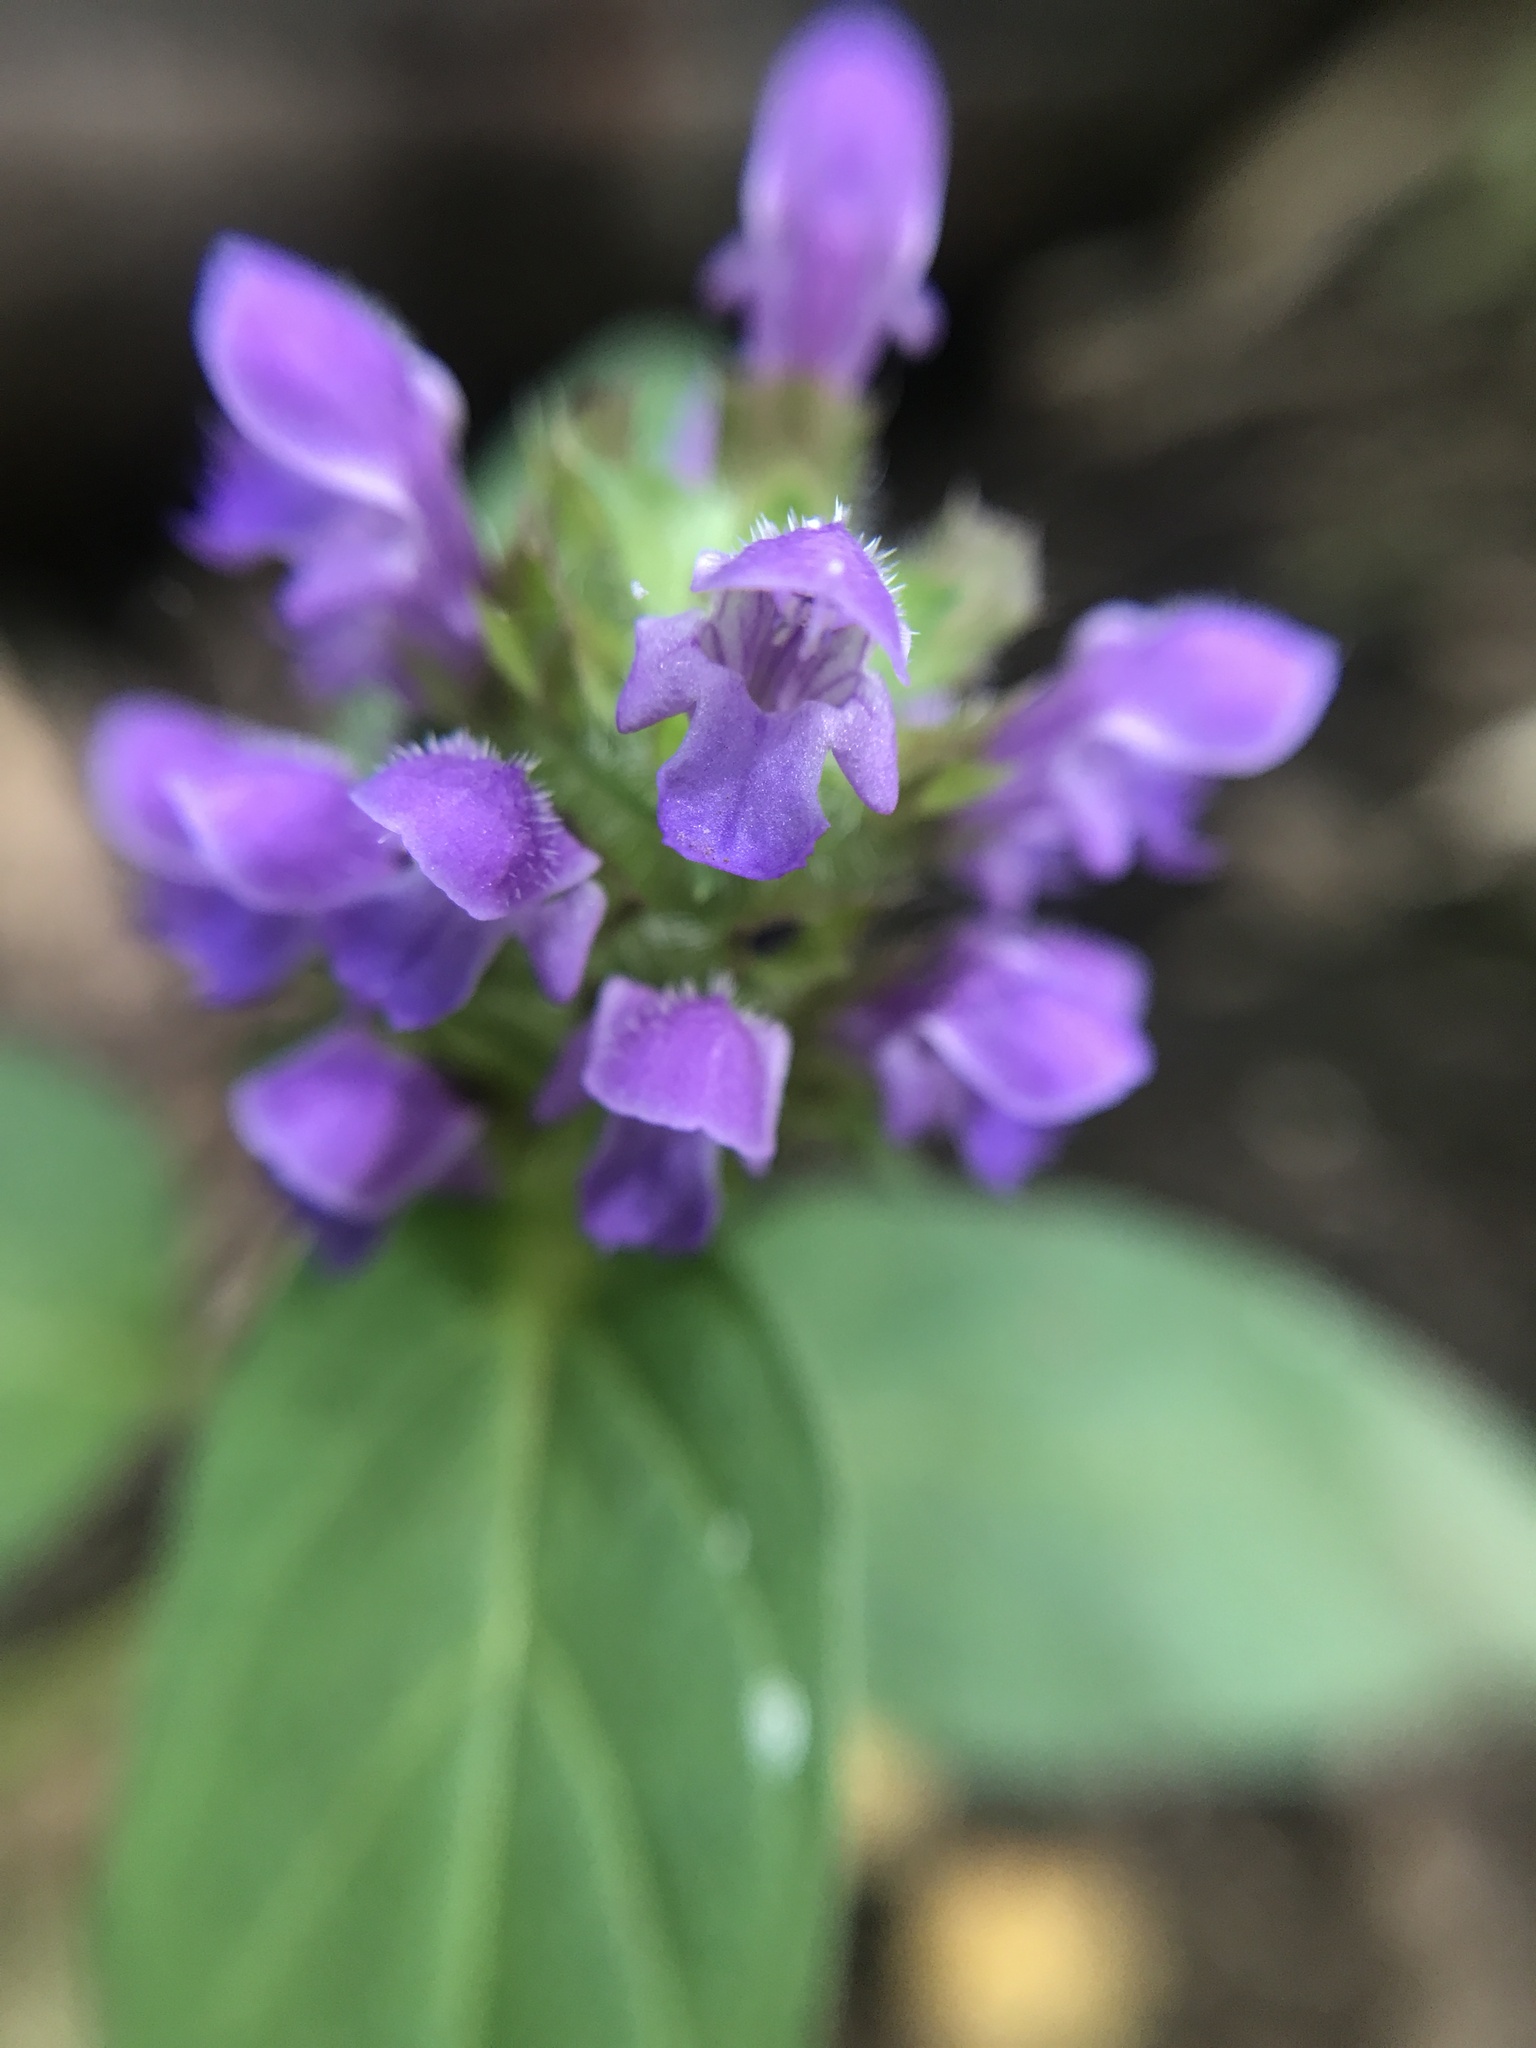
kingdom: Plantae
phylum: Tracheophyta
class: Magnoliopsida
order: Lamiales
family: Lamiaceae
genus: Prunella
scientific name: Prunella vulgaris
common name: Heal-all
